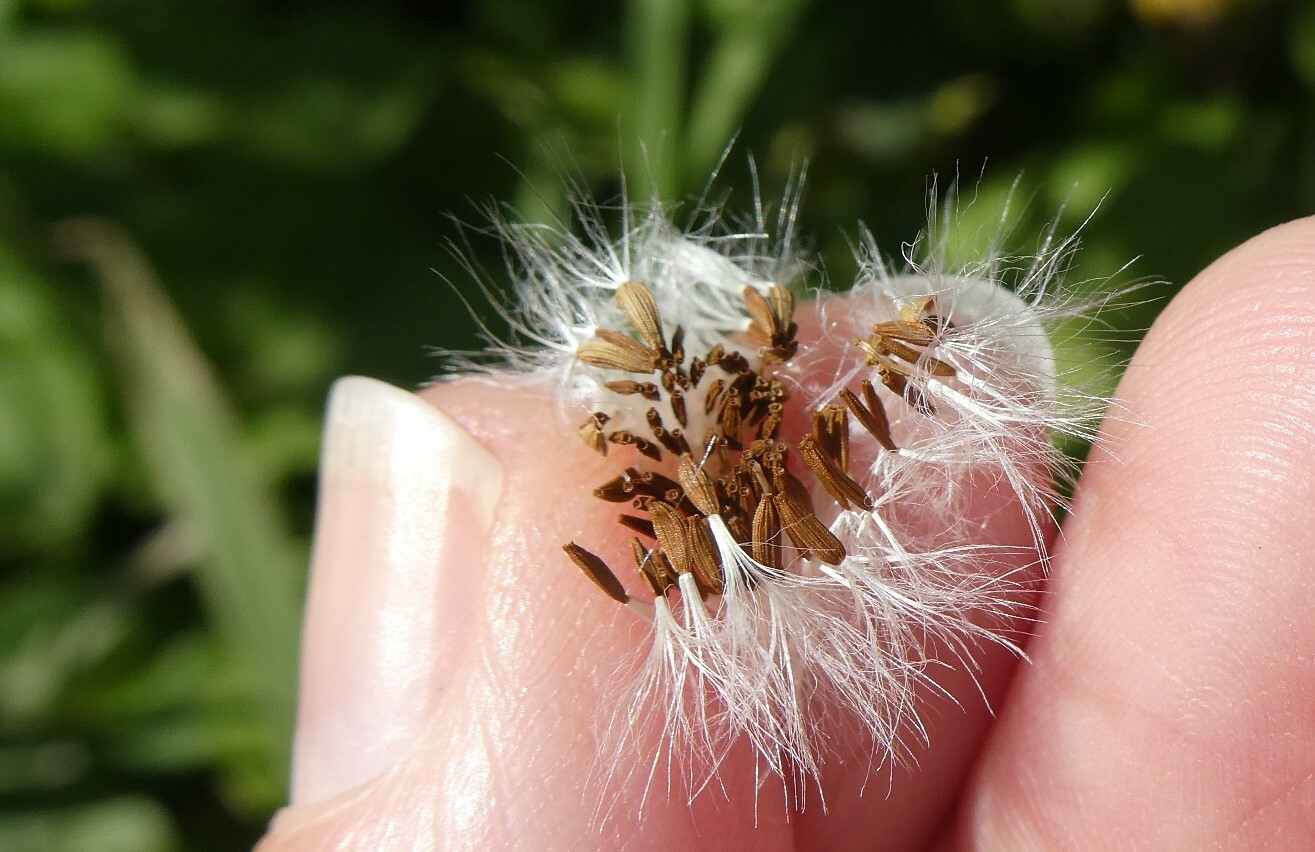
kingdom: Plantae
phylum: Tracheophyta
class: Magnoliopsida
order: Asterales
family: Asteraceae
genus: Sonchus
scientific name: Sonchus oleraceus
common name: Common sowthistle
